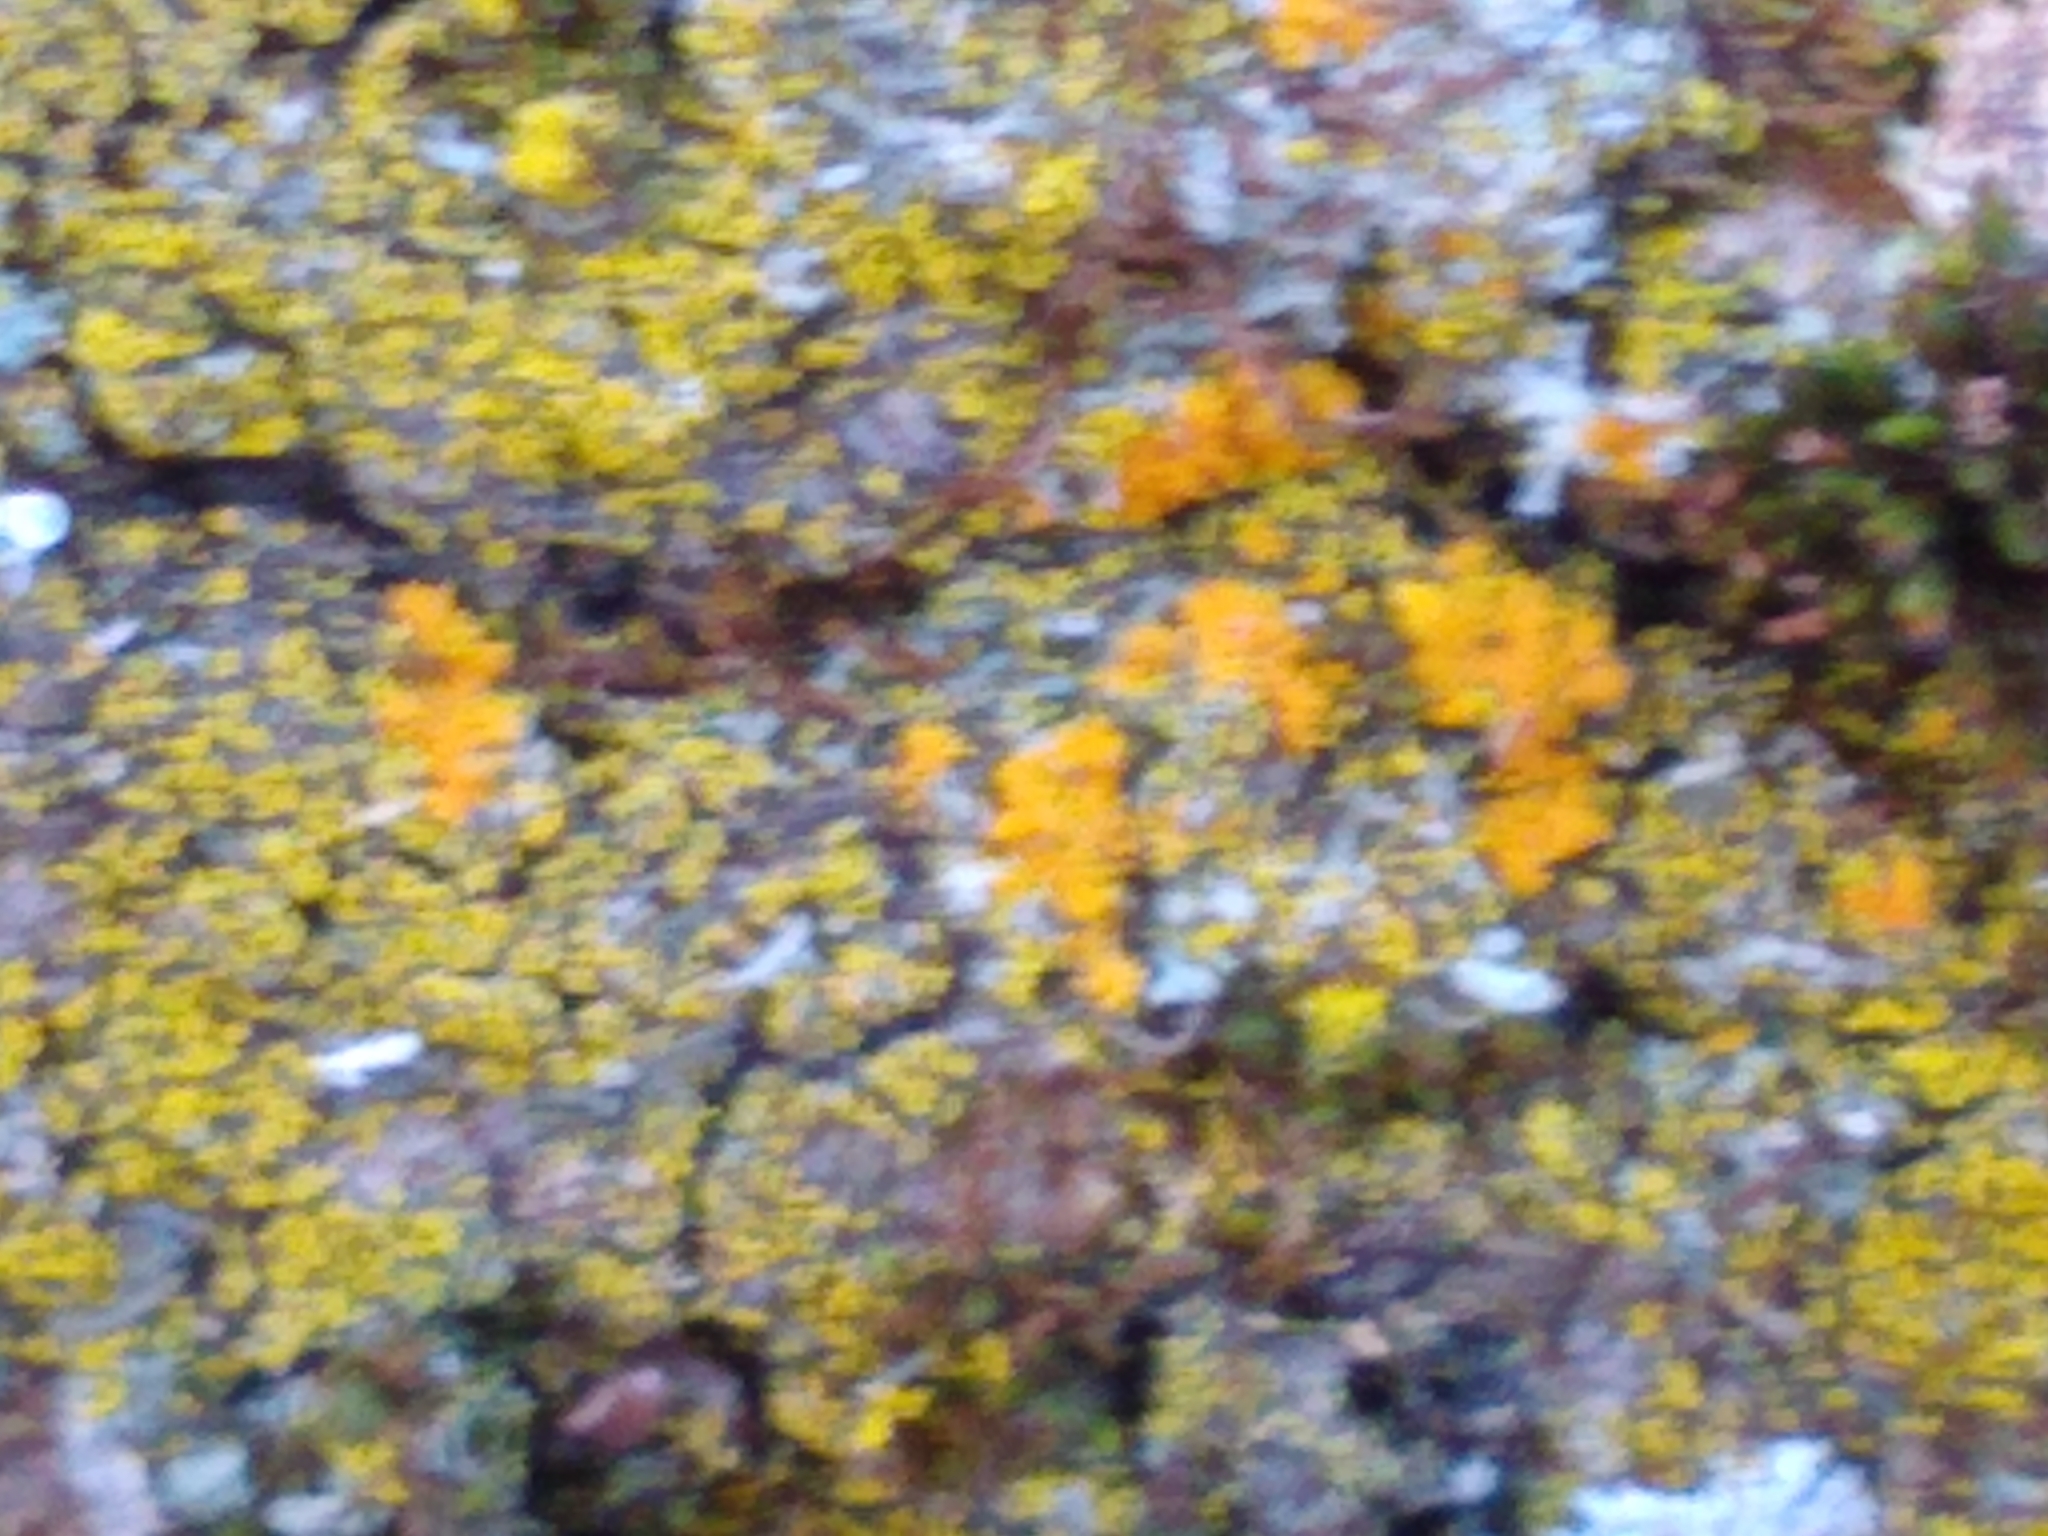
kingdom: Fungi
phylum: Ascomycota
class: Candelariomycetes
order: Candelariales
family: Candelariaceae
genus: Candelariella
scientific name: Candelariella
